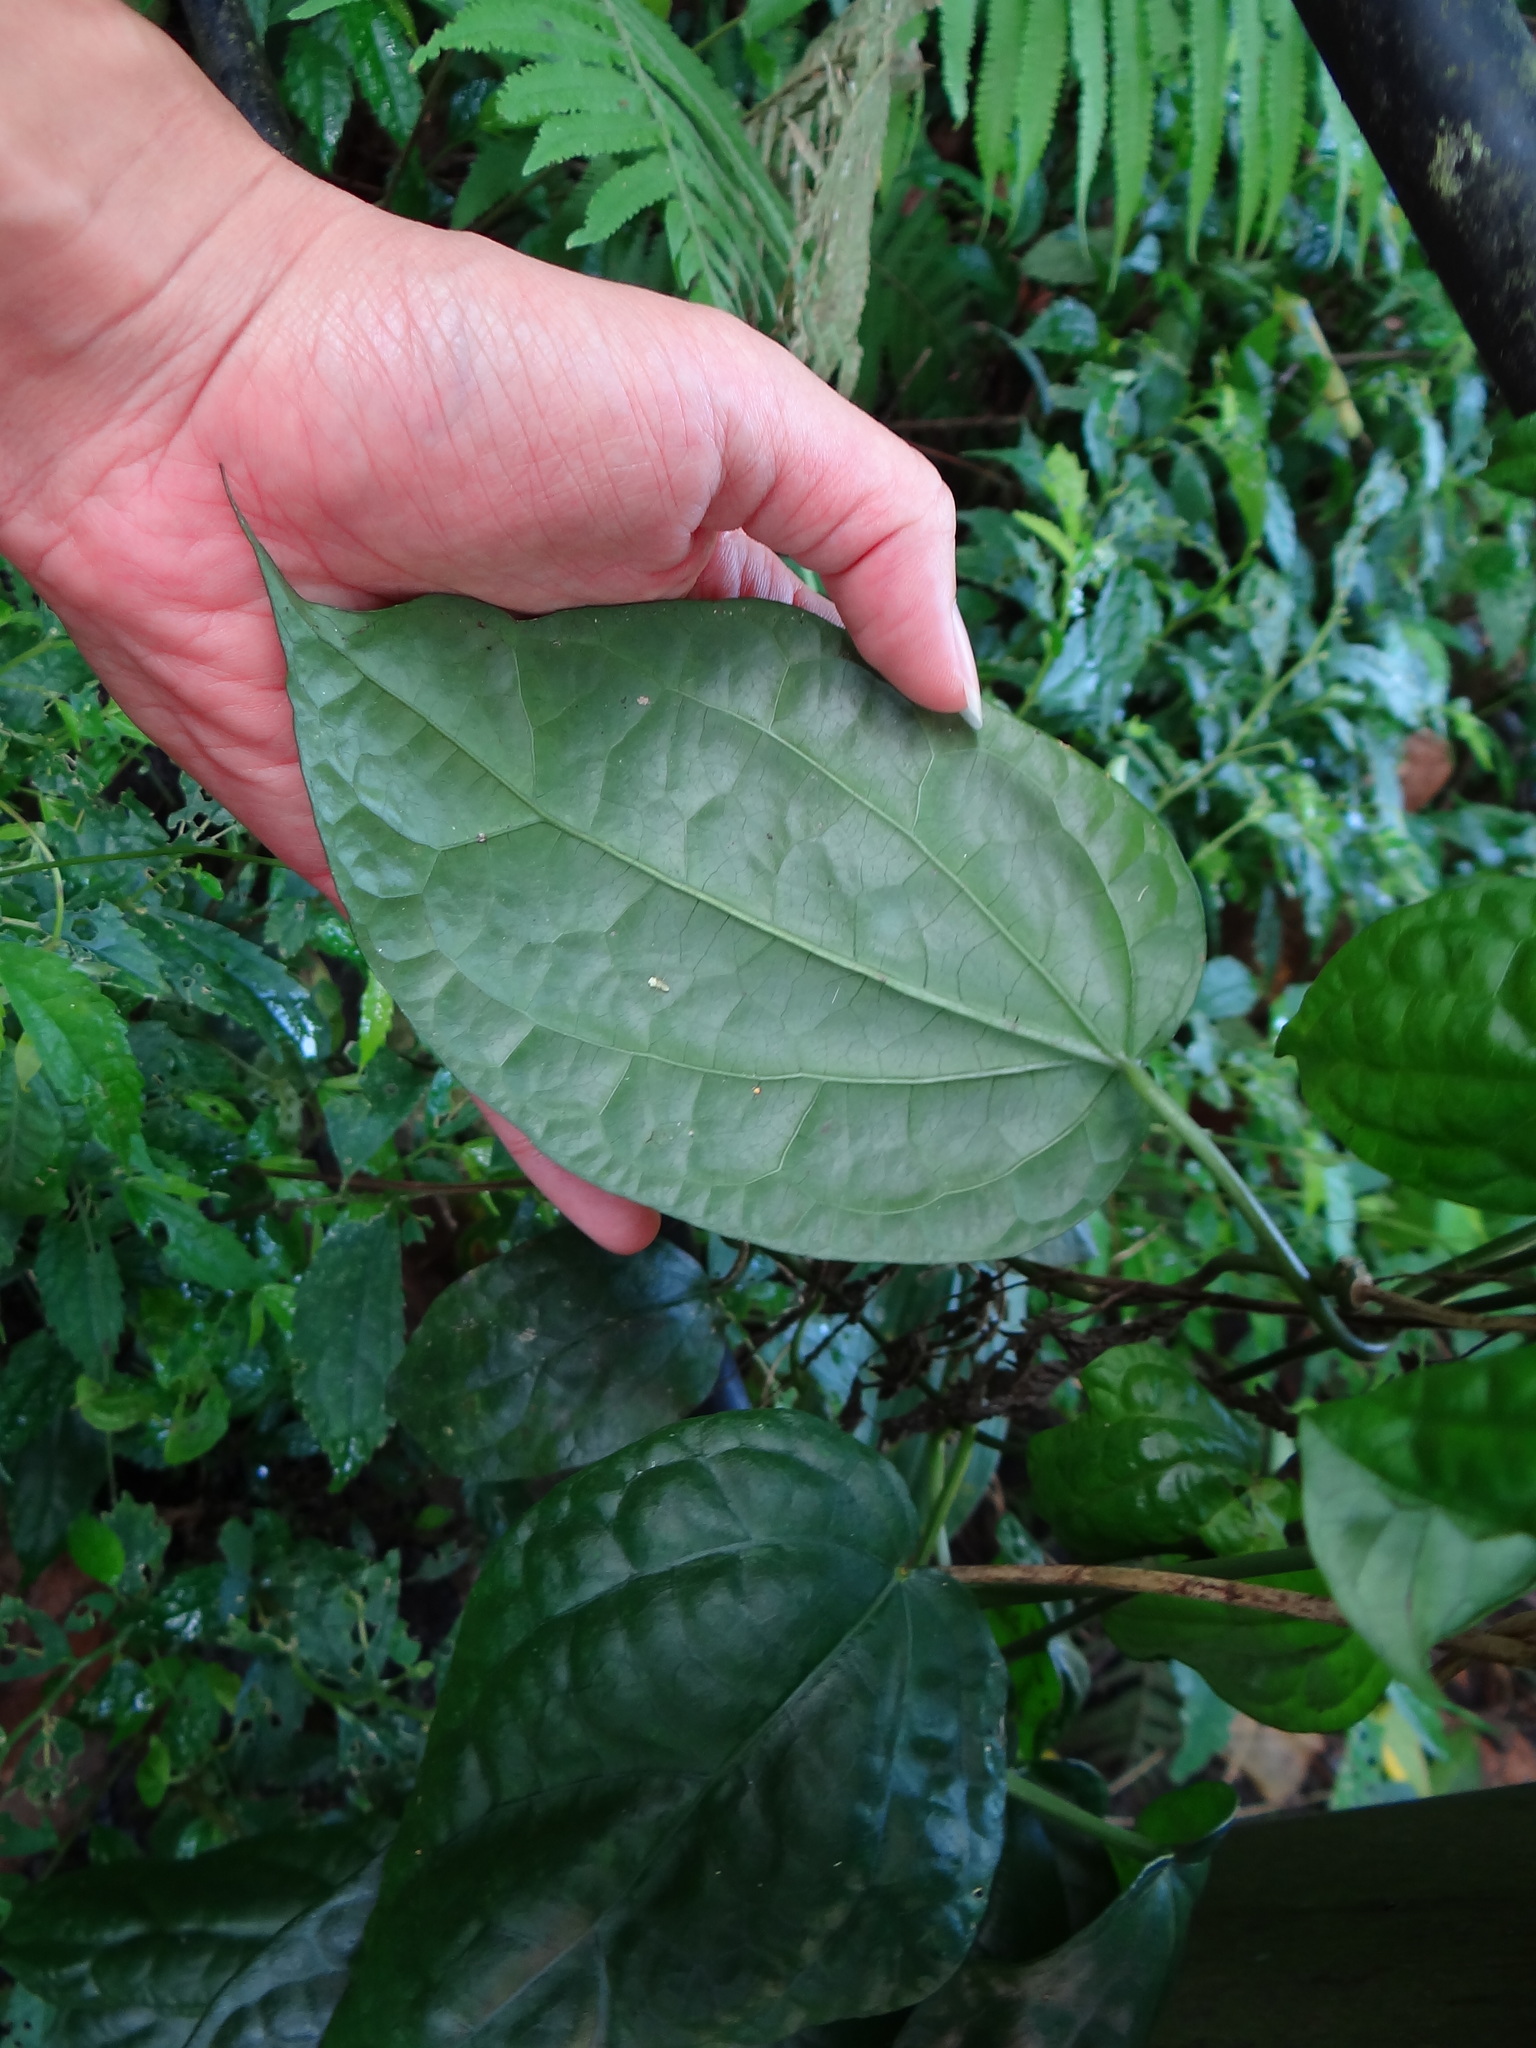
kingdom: Plantae
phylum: Tracheophyta
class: Magnoliopsida
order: Gentianales
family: Apocynaceae
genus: Heterostemma
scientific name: Heterostemma brownii
